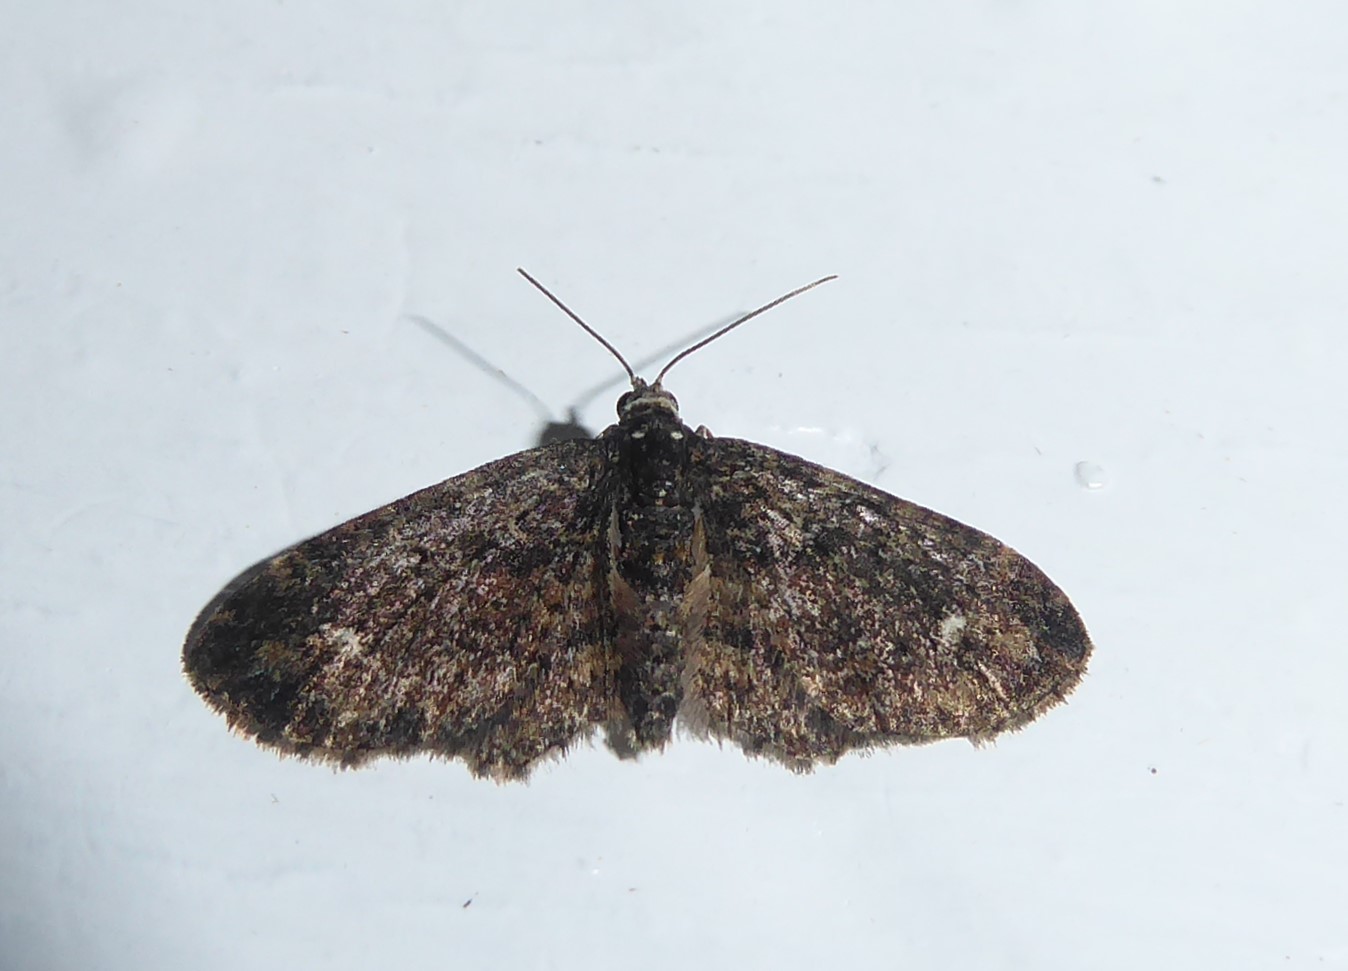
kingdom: Animalia
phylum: Arthropoda
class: Insecta
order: Lepidoptera
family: Geometridae
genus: Pasiphilodes
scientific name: Pasiphilodes testulata
